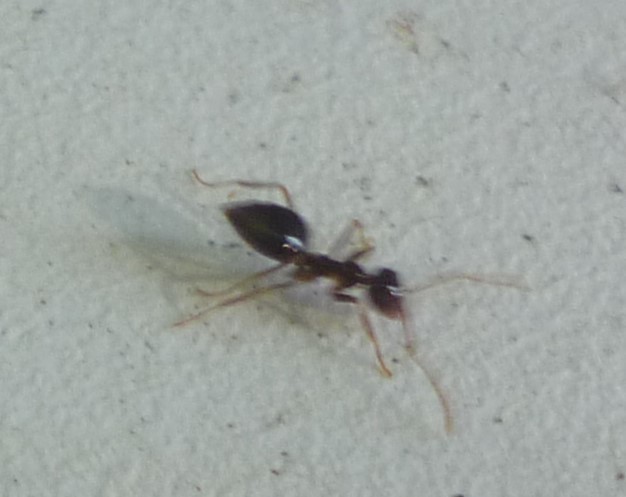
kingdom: Animalia
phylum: Arthropoda
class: Insecta
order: Hymenoptera
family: Formicidae
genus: Prenolepis
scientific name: Prenolepis imparis
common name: Small honey ant
